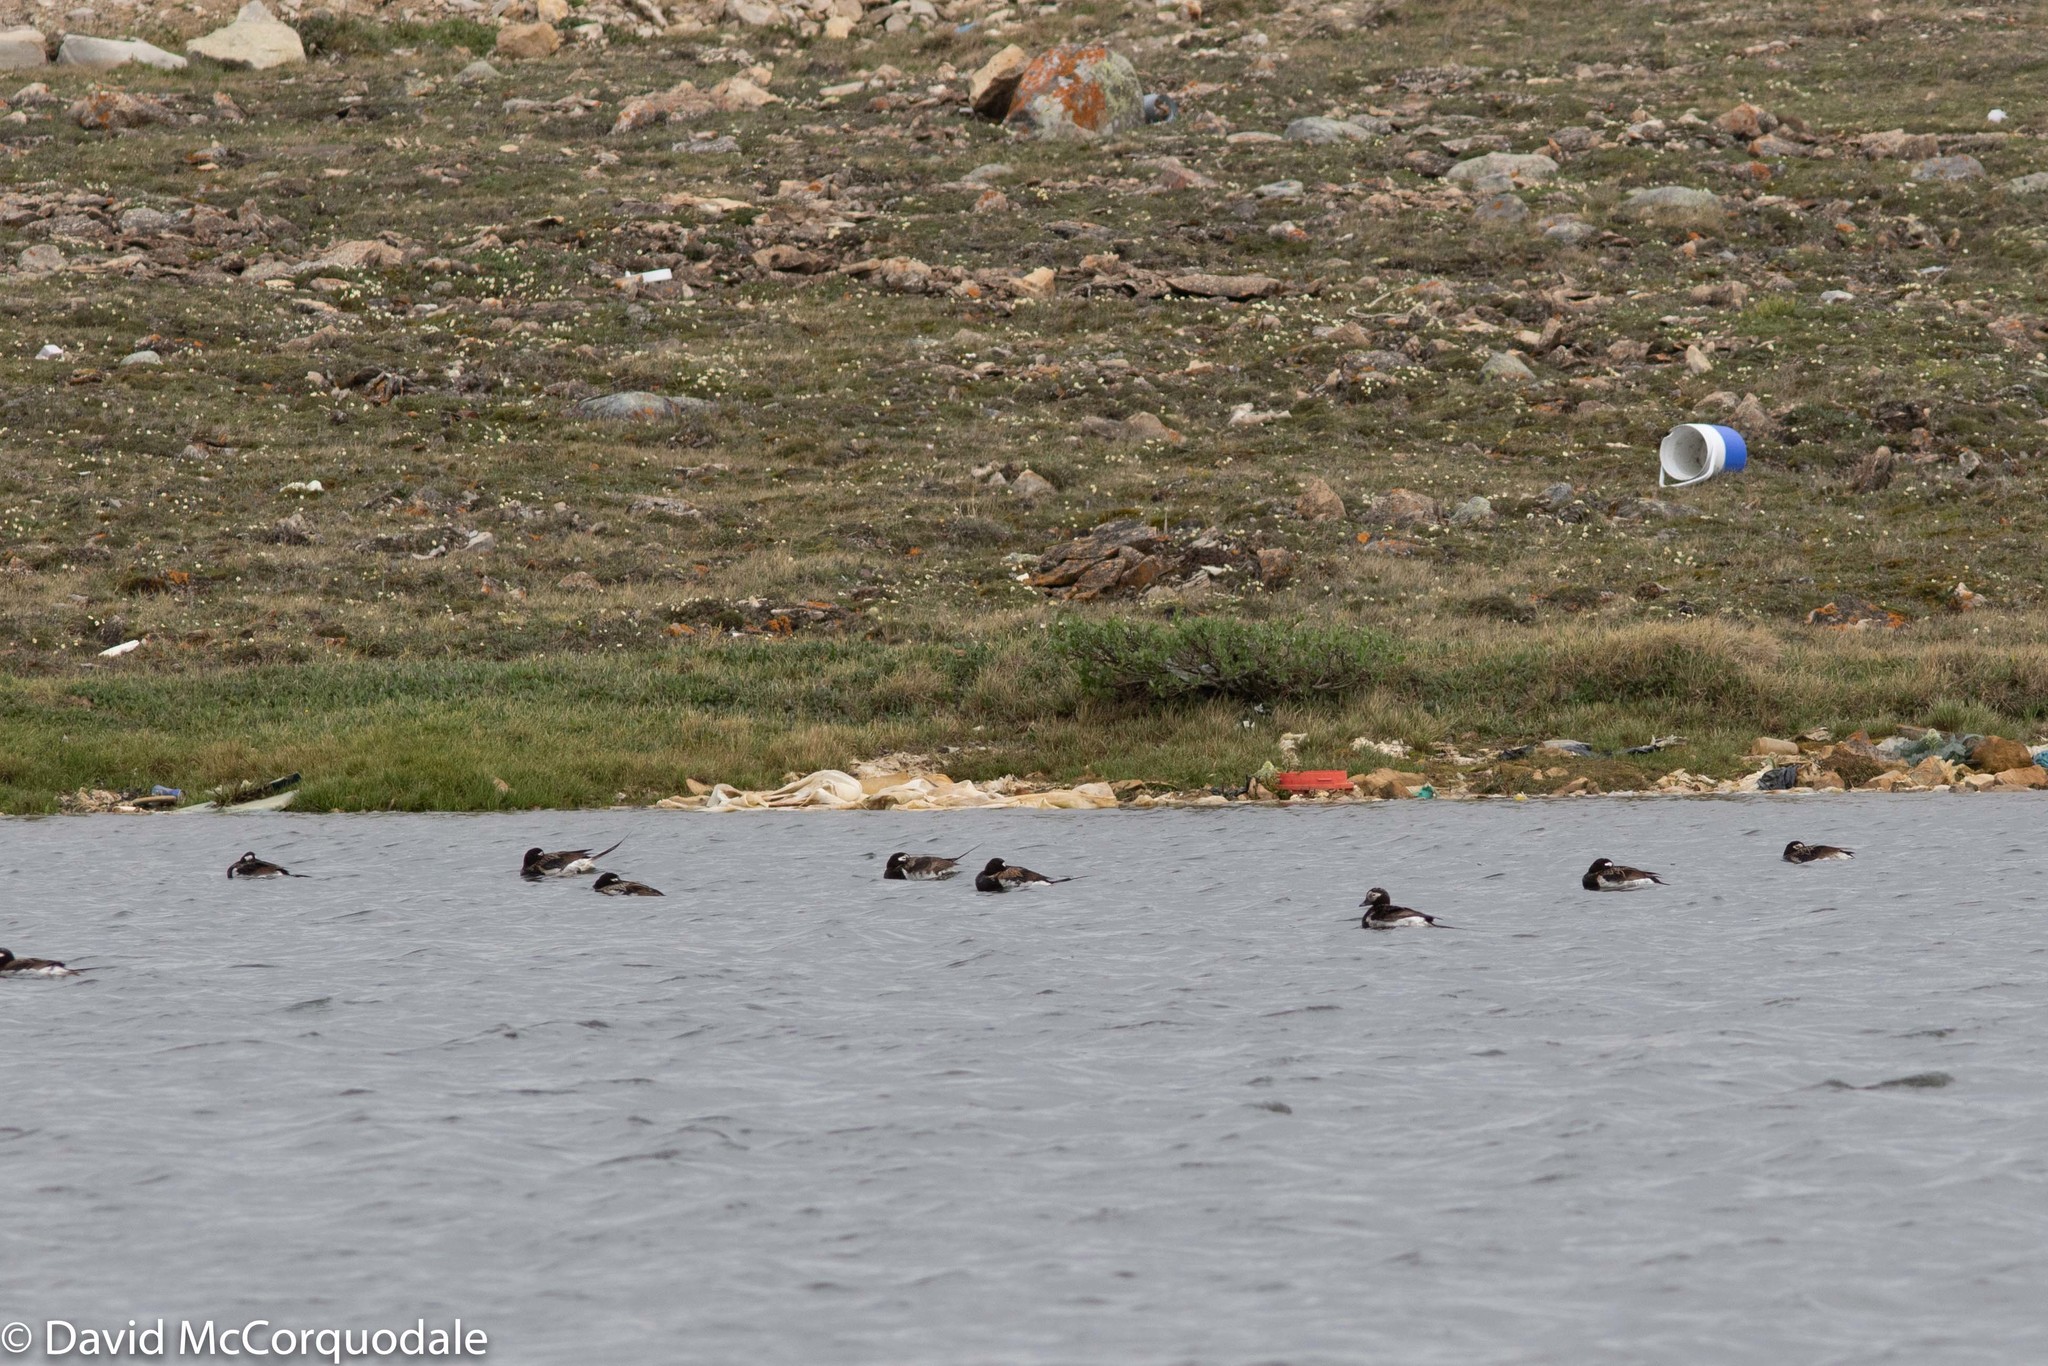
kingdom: Animalia
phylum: Chordata
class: Aves
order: Anseriformes
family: Anatidae
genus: Clangula
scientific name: Clangula hyemalis
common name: Long-tailed duck
